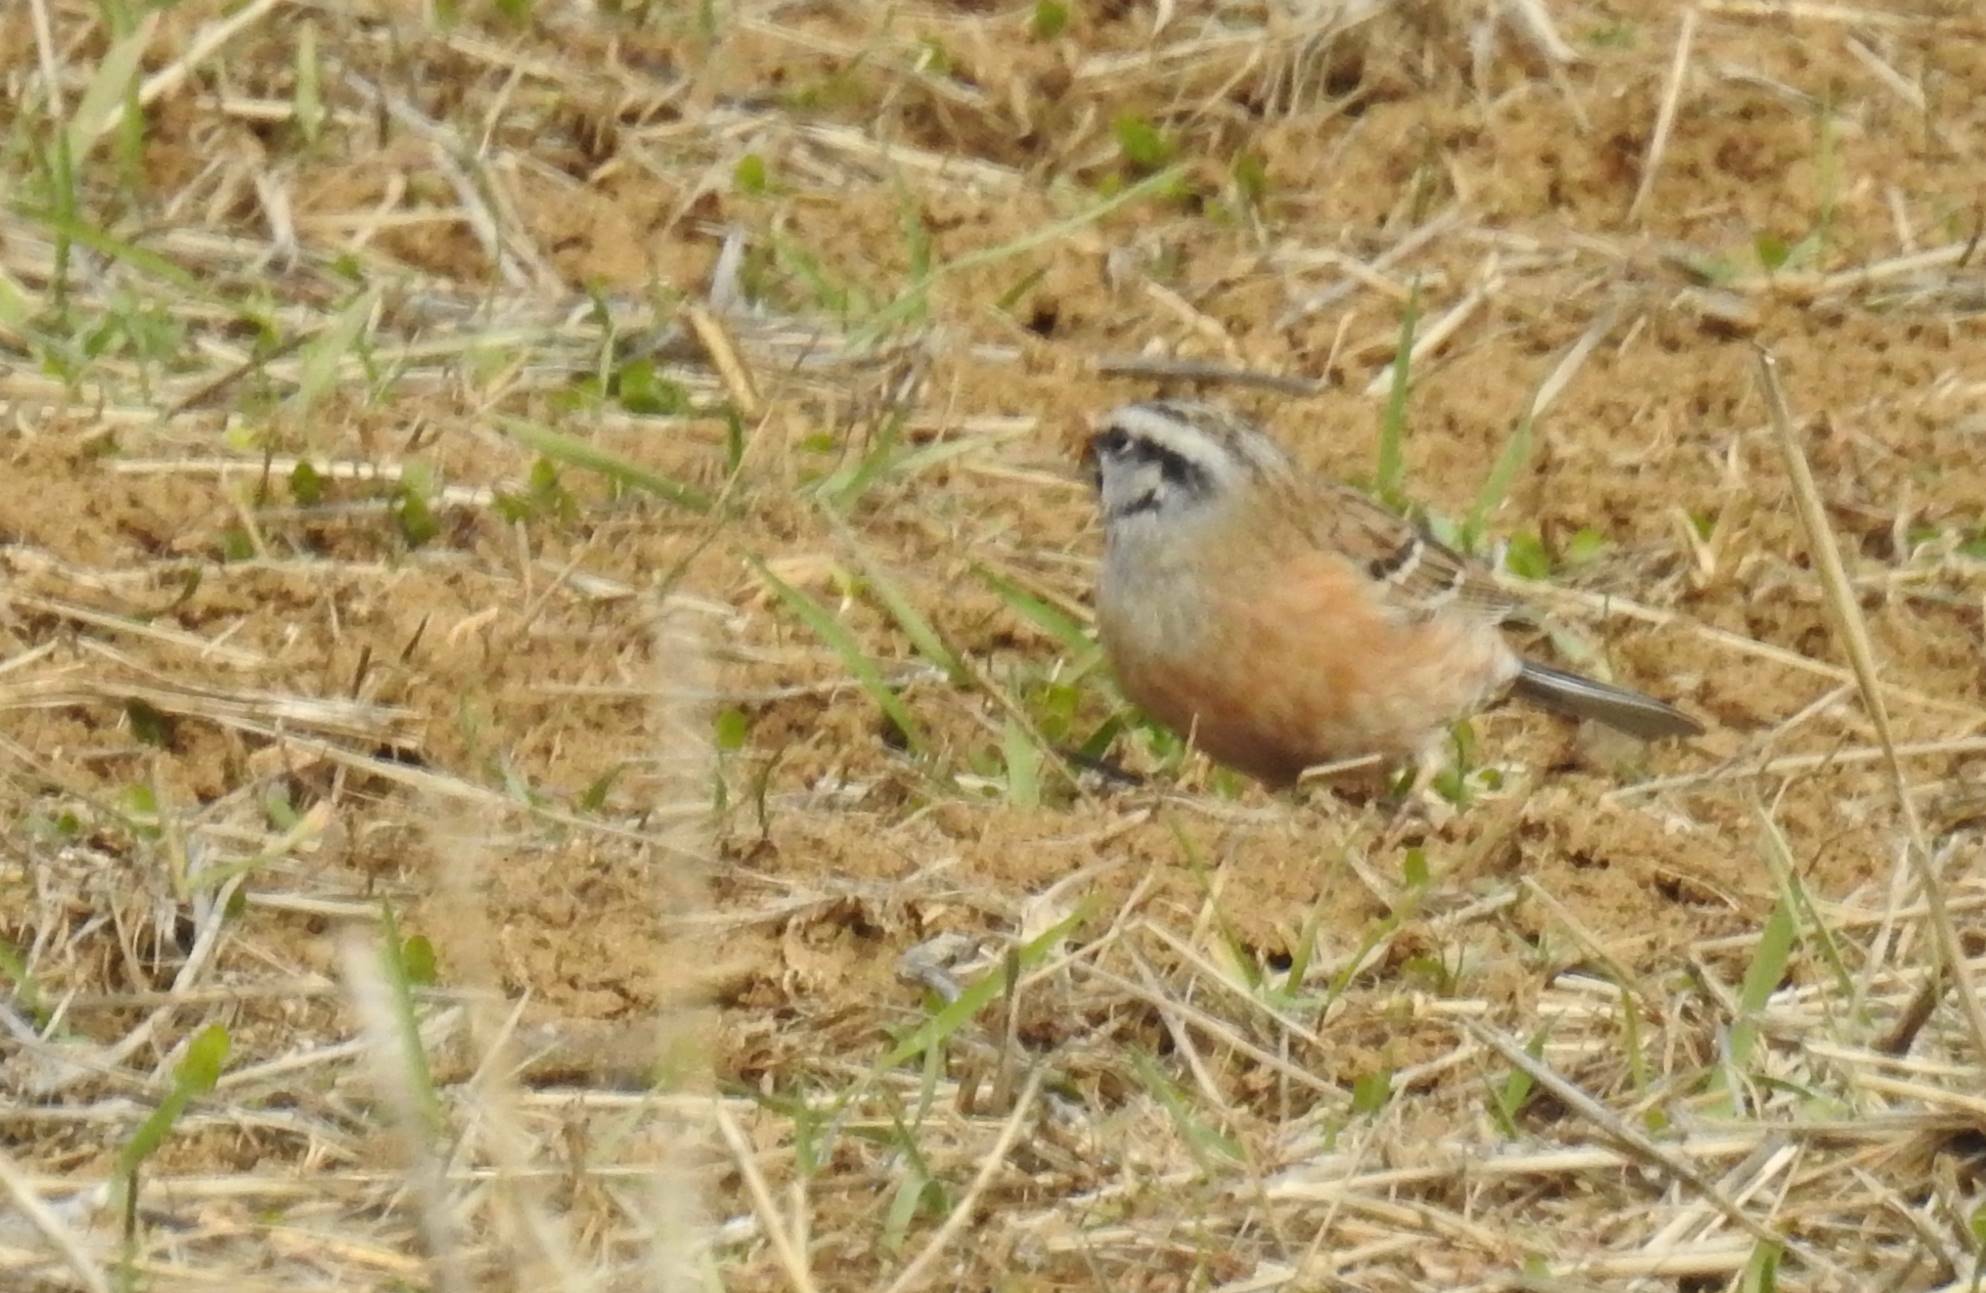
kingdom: Animalia
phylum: Chordata
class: Aves
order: Passeriformes
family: Emberizidae
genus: Emberiza
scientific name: Emberiza cia
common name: Rock bunting
